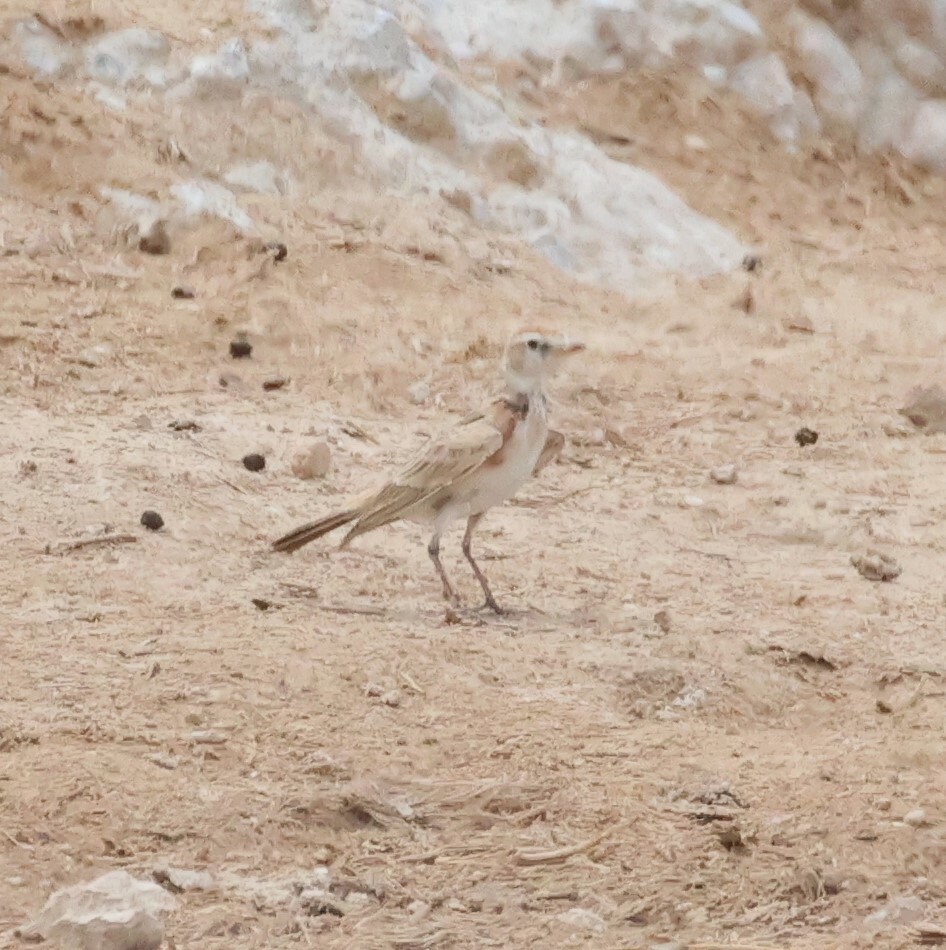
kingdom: Animalia
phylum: Chordata
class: Aves
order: Passeriformes
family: Alaudidae
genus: Calandrella
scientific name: Calandrella cinerea
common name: Red-capped lark
